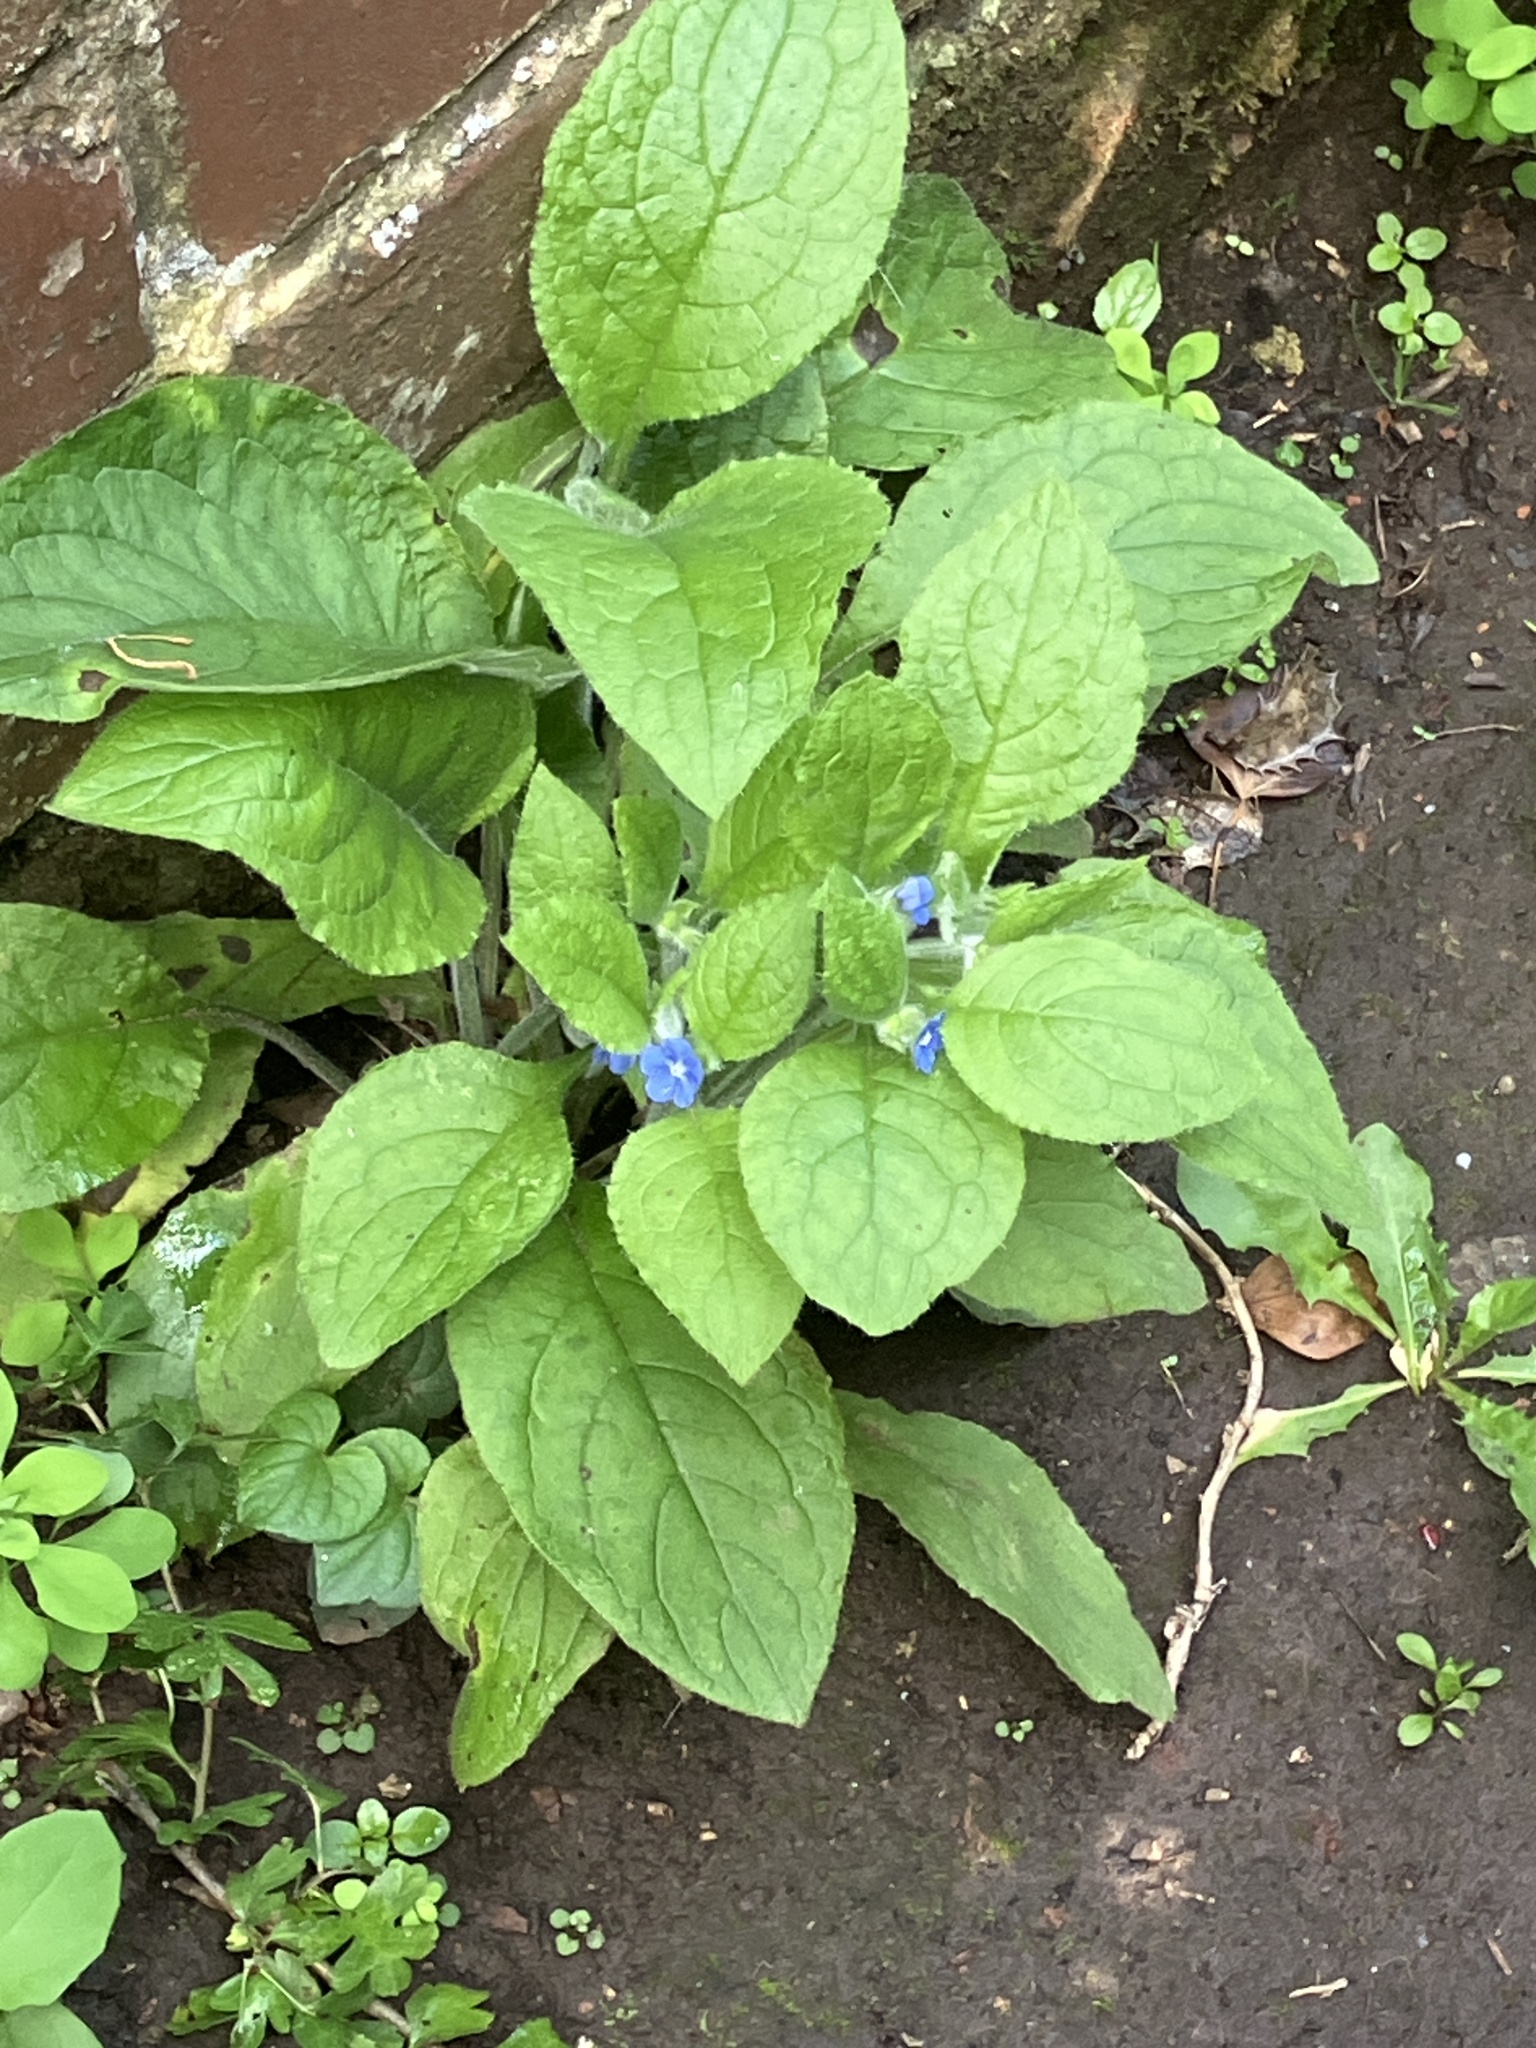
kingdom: Plantae
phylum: Tracheophyta
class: Magnoliopsida
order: Boraginales
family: Boraginaceae
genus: Pentaglottis
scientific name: Pentaglottis sempervirens
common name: Green alkanet
